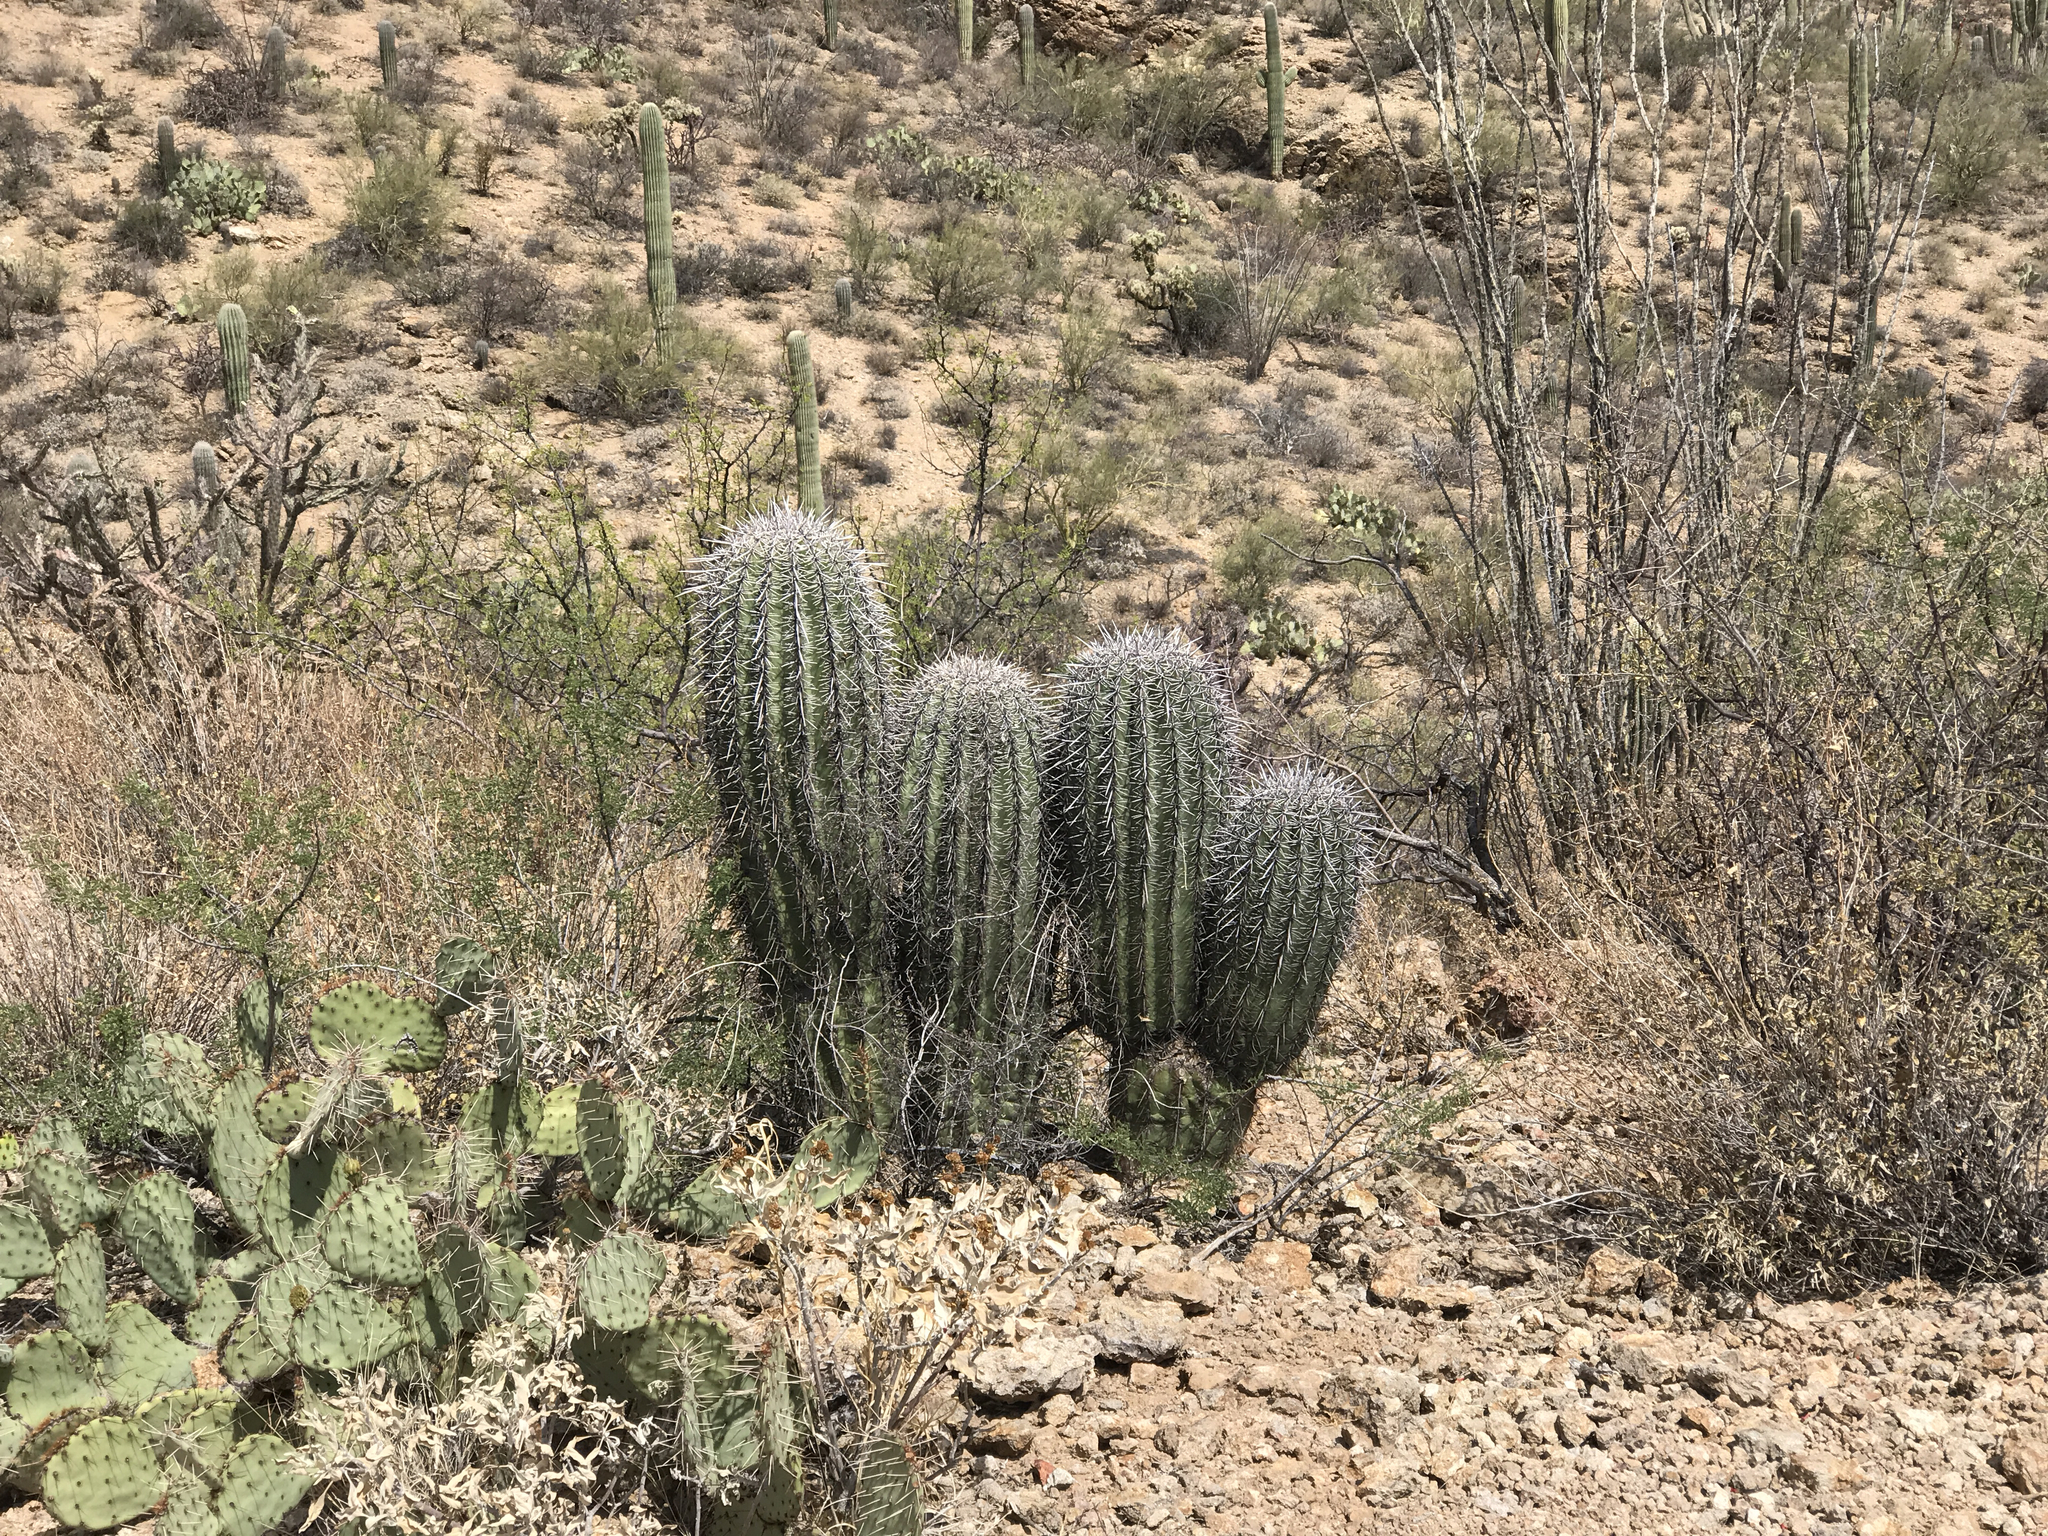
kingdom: Plantae
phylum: Tracheophyta
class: Magnoliopsida
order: Caryophyllales
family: Cactaceae
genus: Carnegiea
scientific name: Carnegiea gigantea
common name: Saguaro
